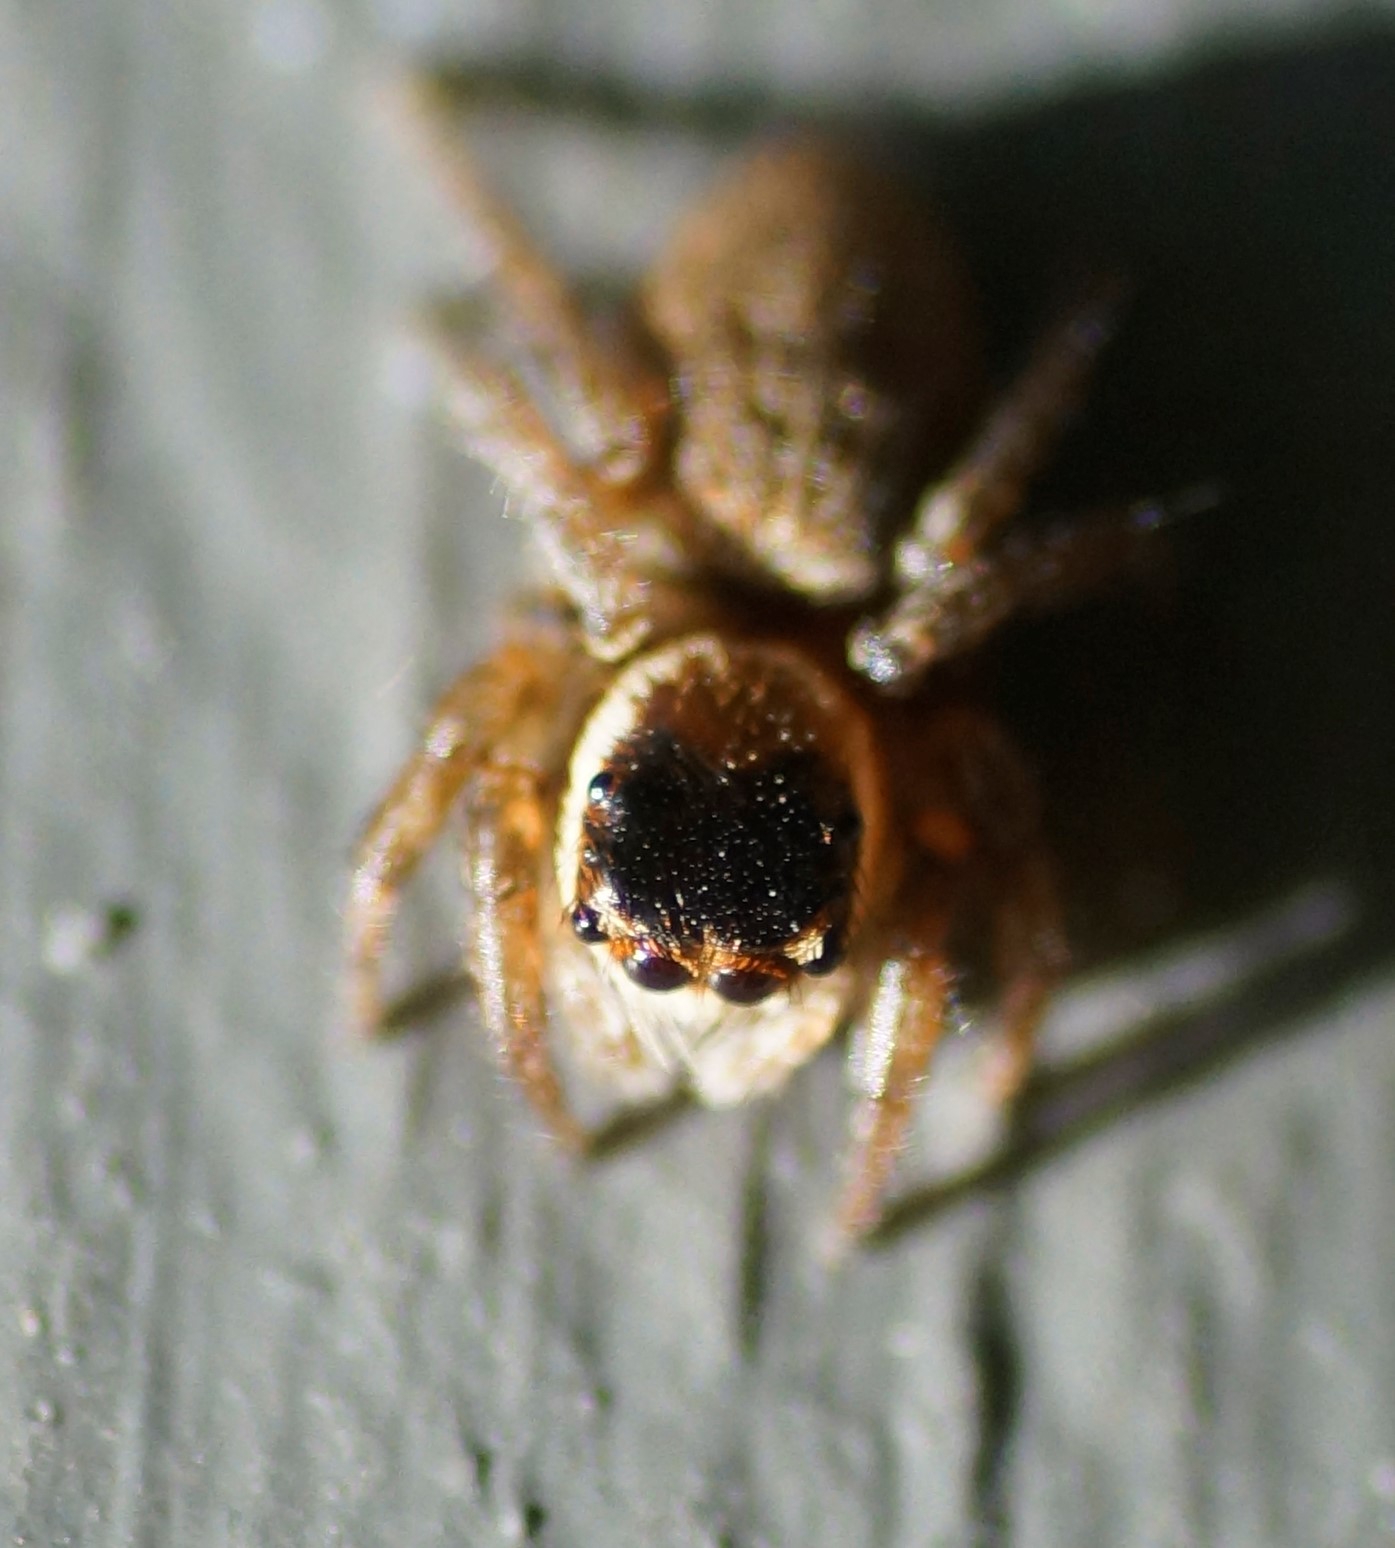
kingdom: Animalia
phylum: Arthropoda
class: Arachnida
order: Araneae
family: Salticidae
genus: Maratus
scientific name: Maratus griseus
